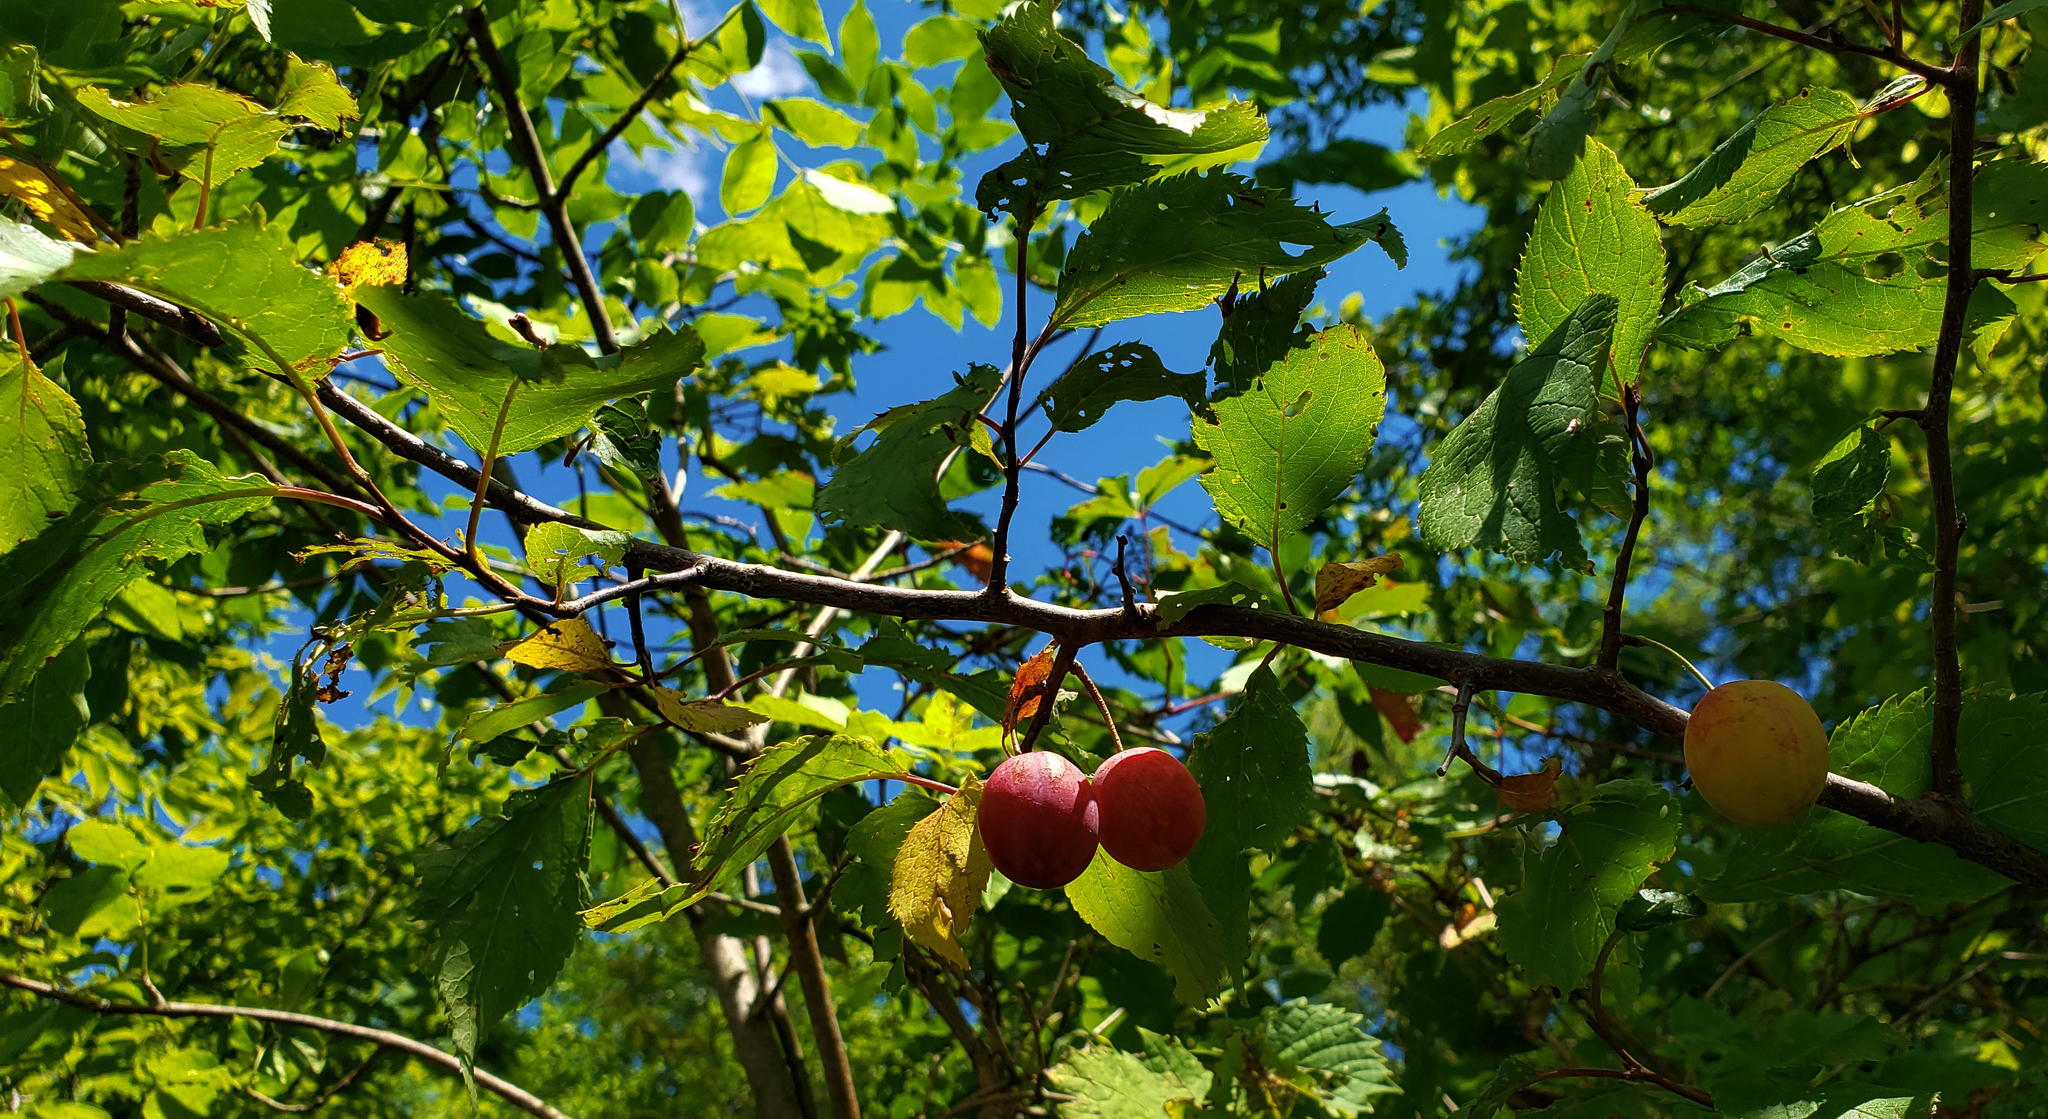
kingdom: Plantae
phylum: Tracheophyta
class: Magnoliopsida
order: Rosales
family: Rosaceae
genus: Prunus
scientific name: Prunus americana
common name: American plum
